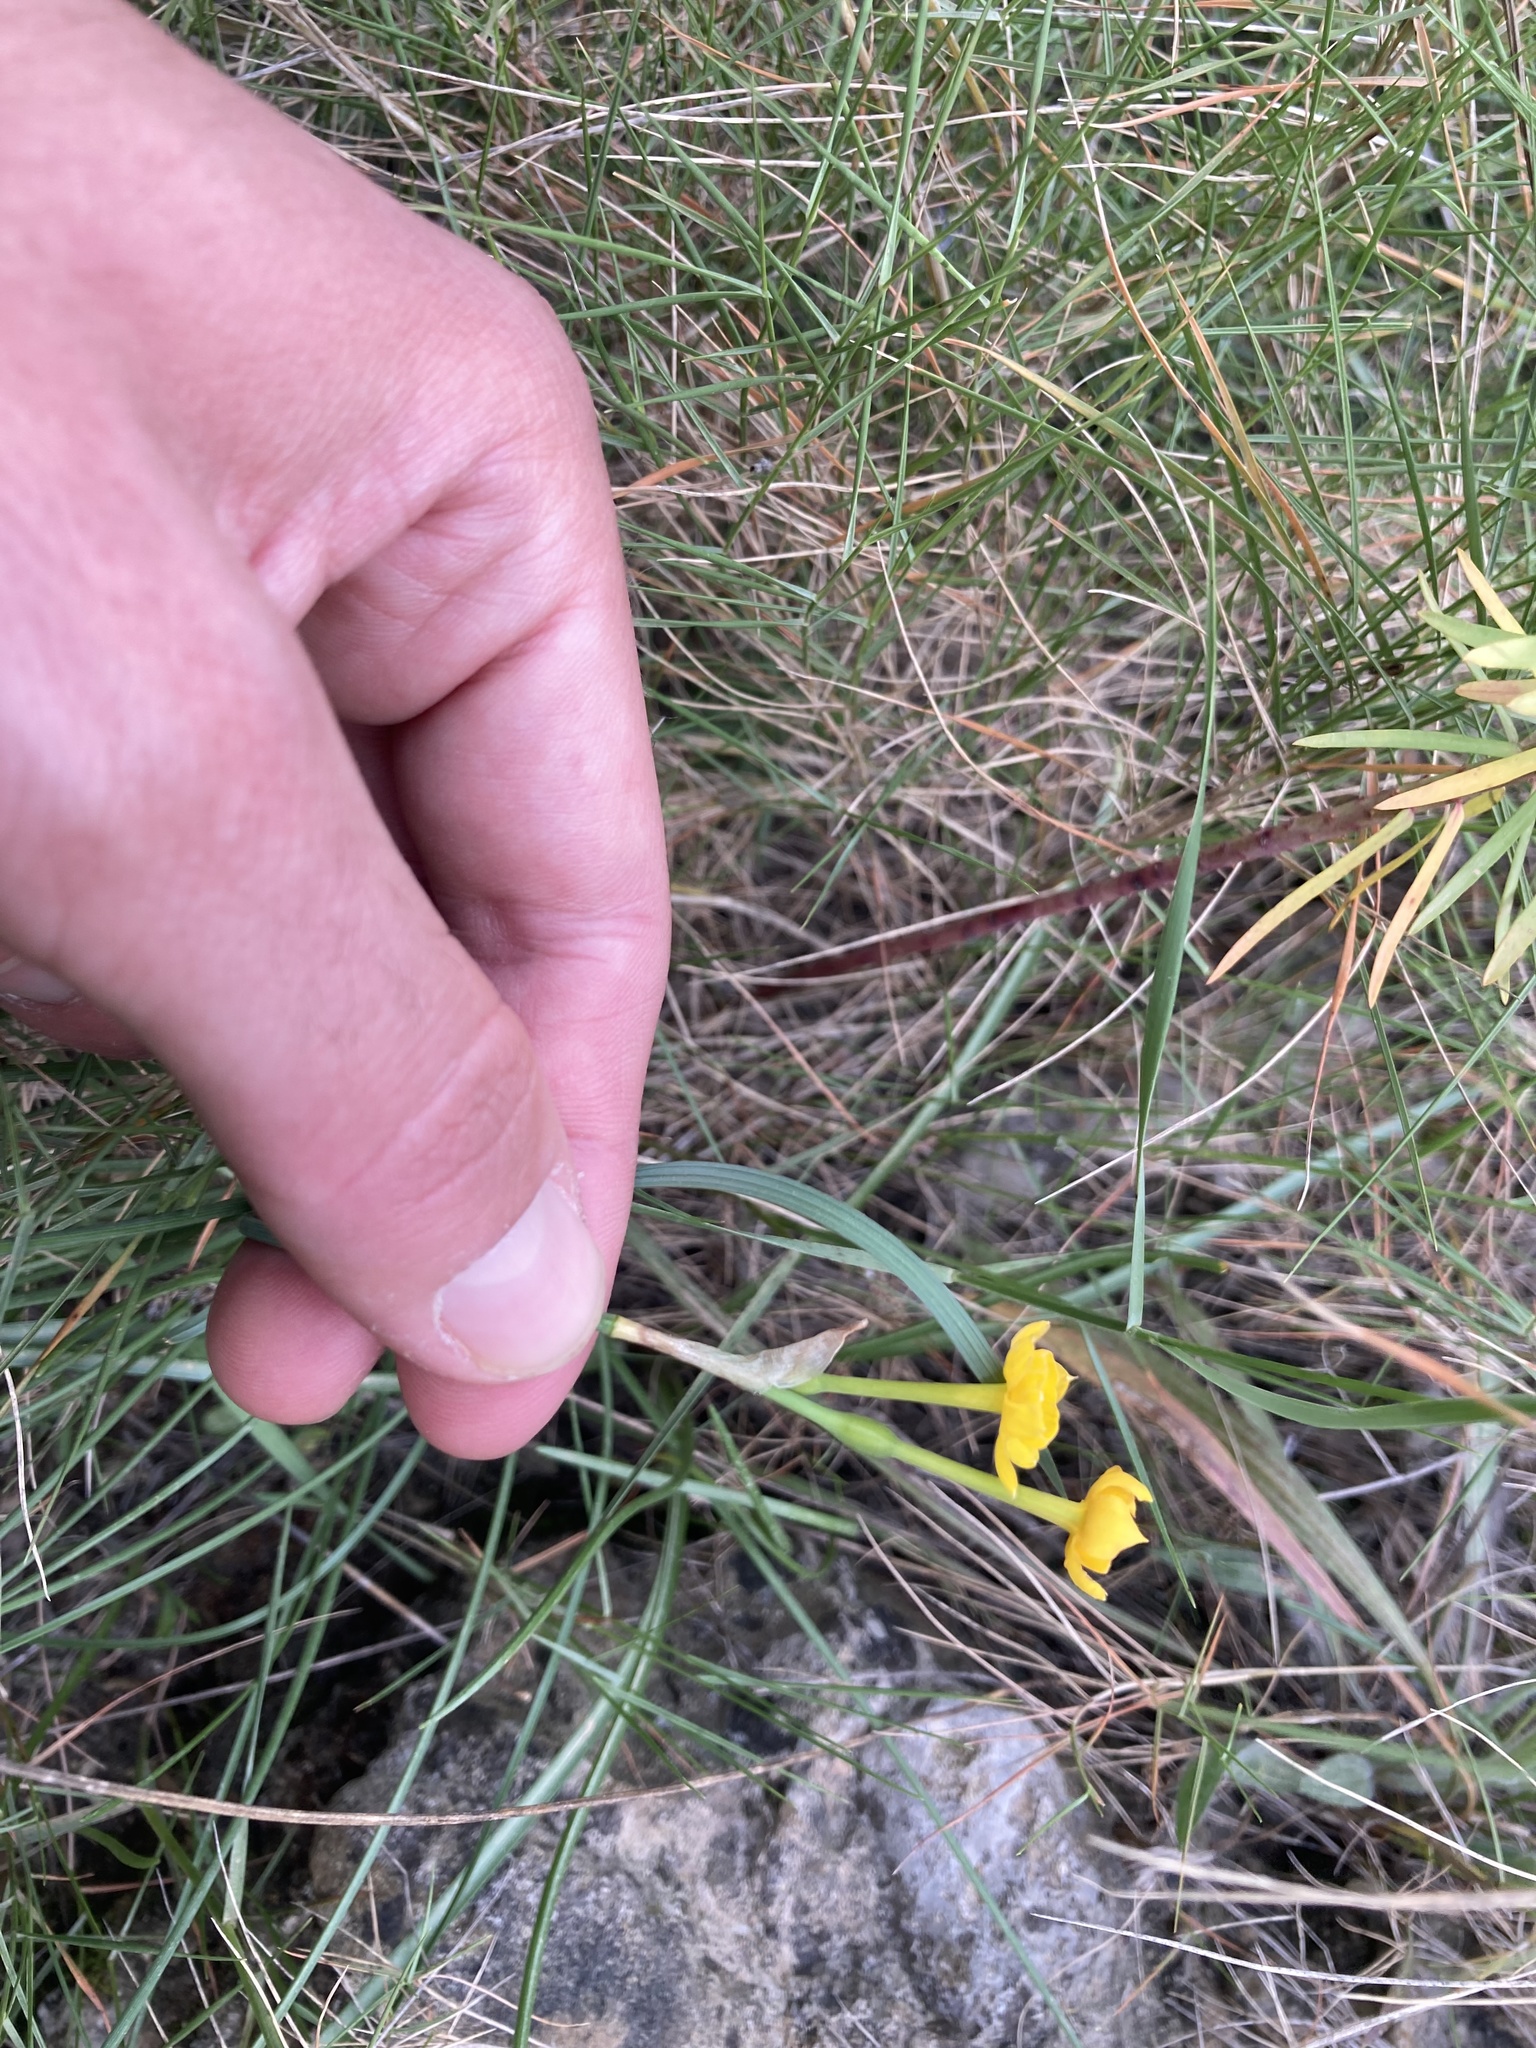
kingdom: Plantae
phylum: Tracheophyta
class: Liliopsida
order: Asparagales
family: Amaryllidaceae
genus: Narcissus
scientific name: Narcissus assoanus
